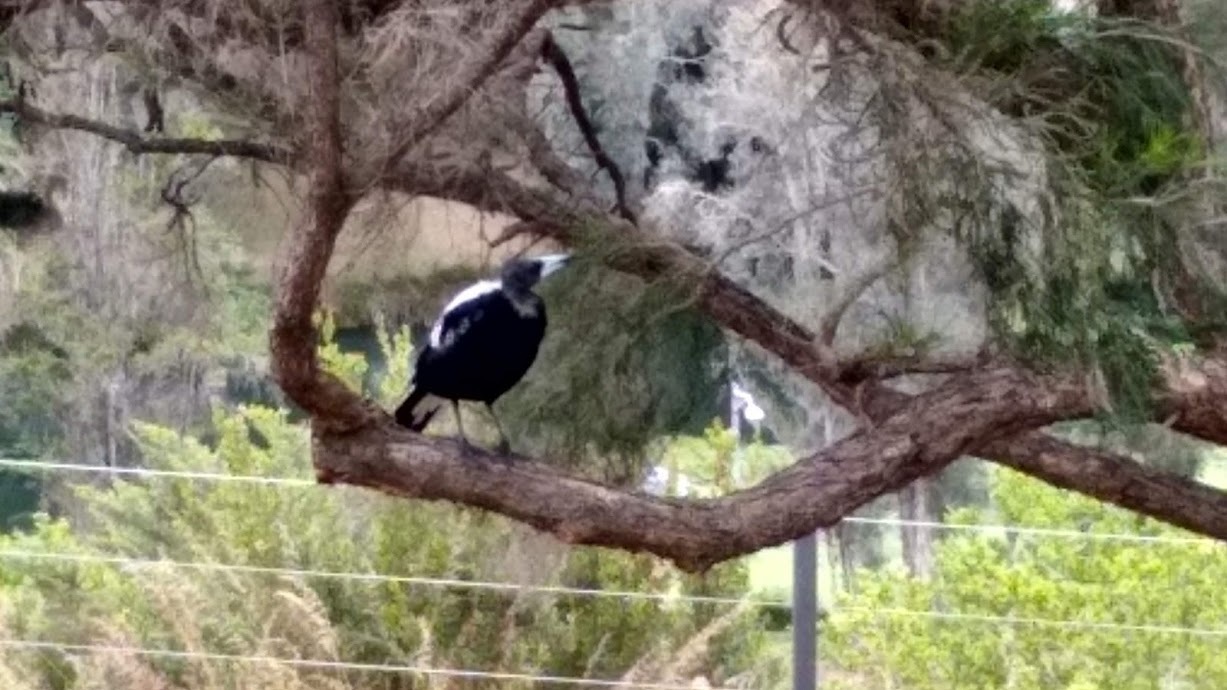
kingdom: Animalia
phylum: Chordata
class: Aves
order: Passeriformes
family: Cracticidae
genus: Gymnorhina
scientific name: Gymnorhina tibicen
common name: Australian magpie
